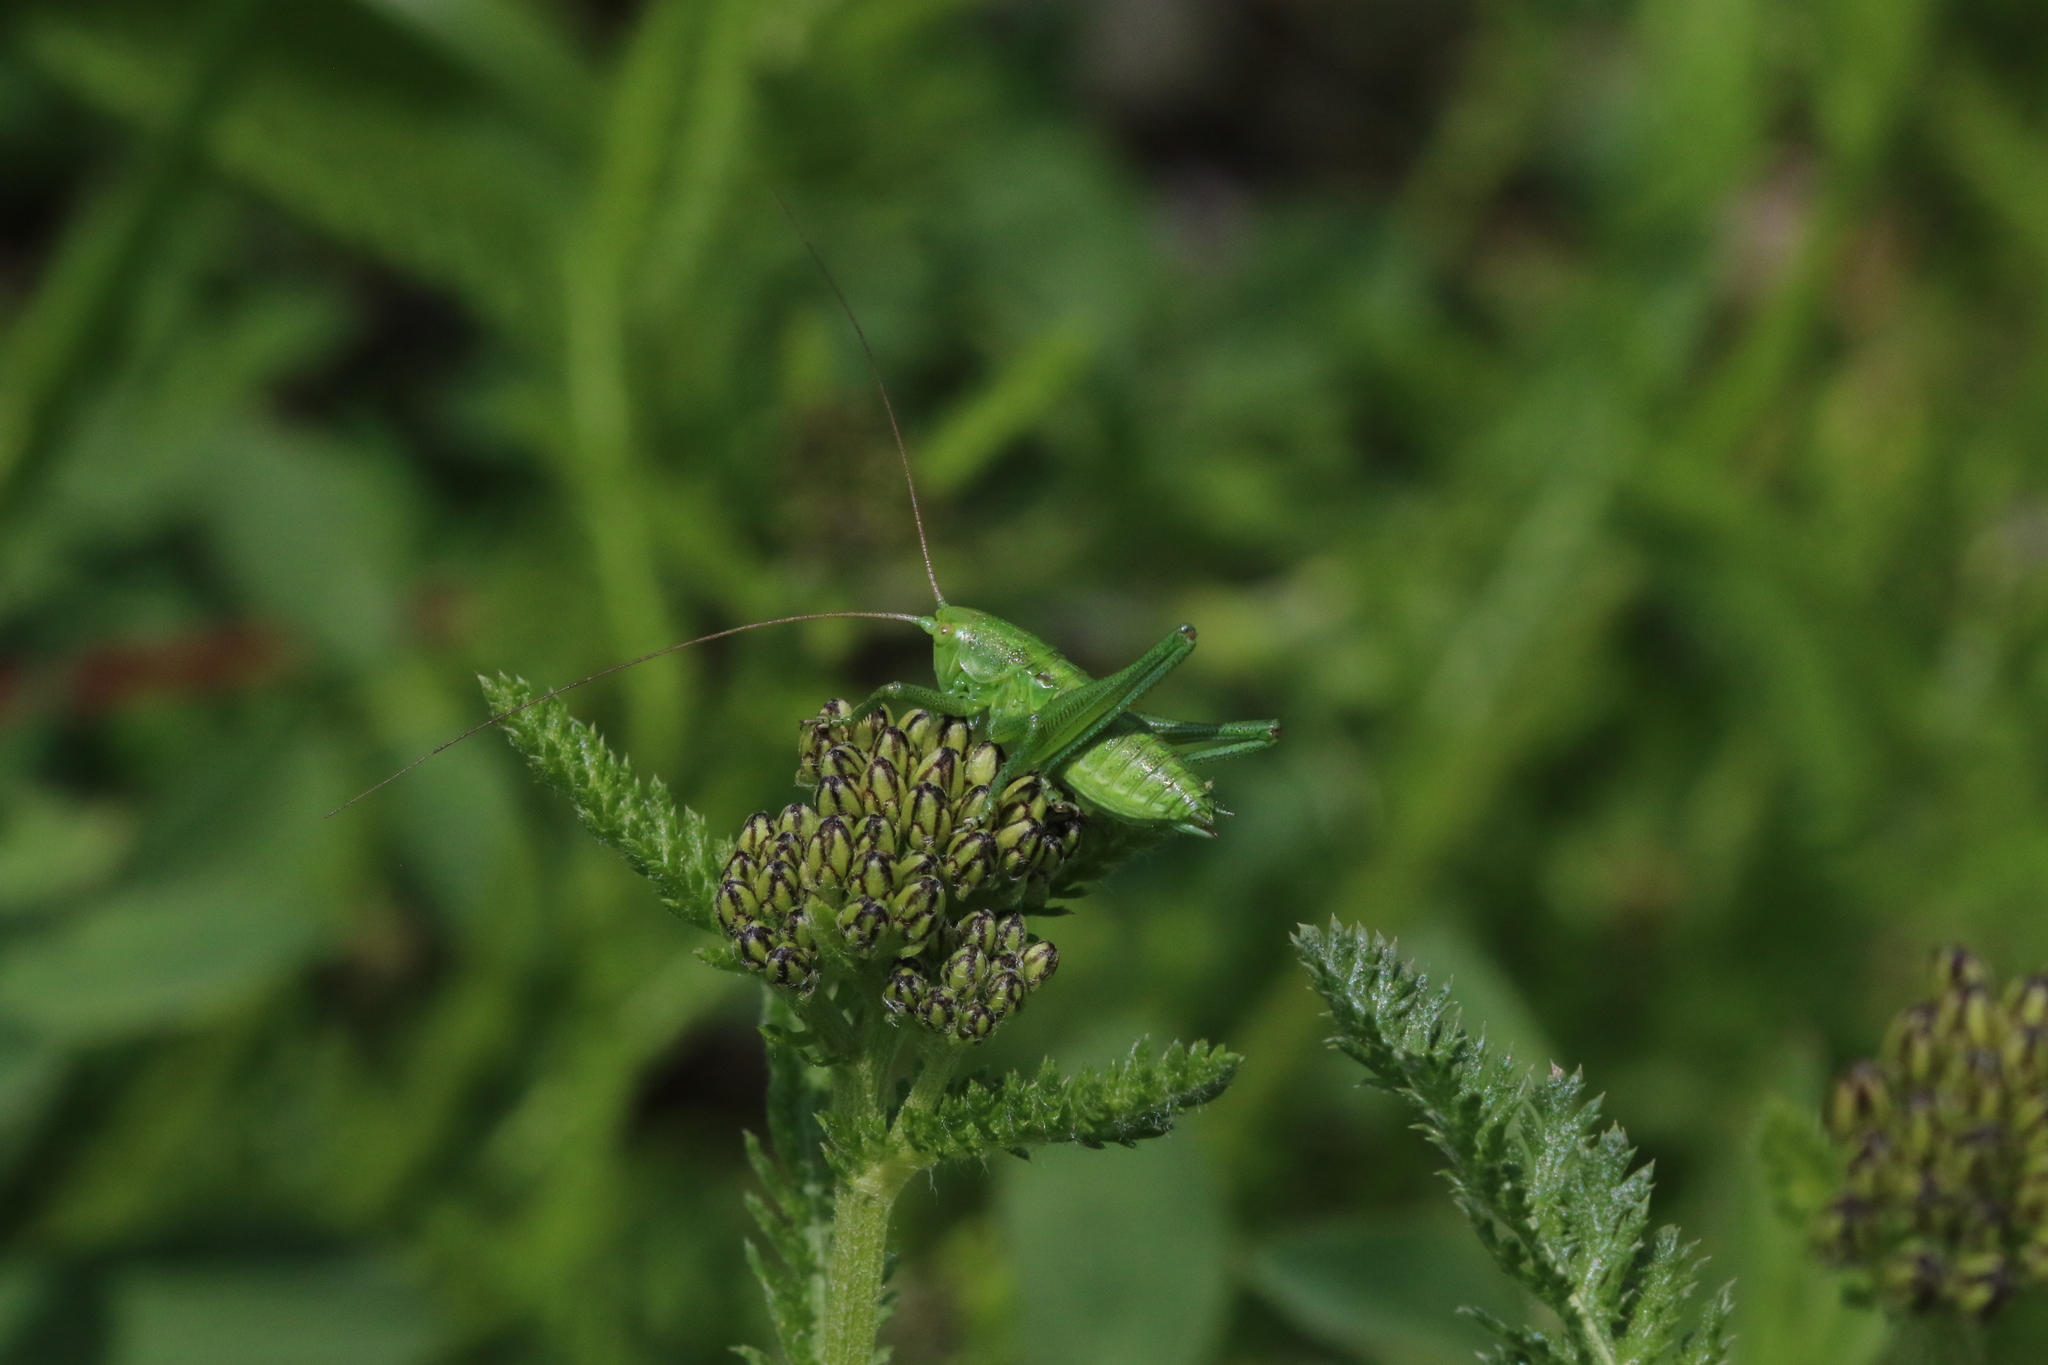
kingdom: Animalia
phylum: Arthropoda
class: Insecta
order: Orthoptera
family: Tettigoniidae
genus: Tettigonia
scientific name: Tettigonia viridissima
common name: Great green bush-cricket
